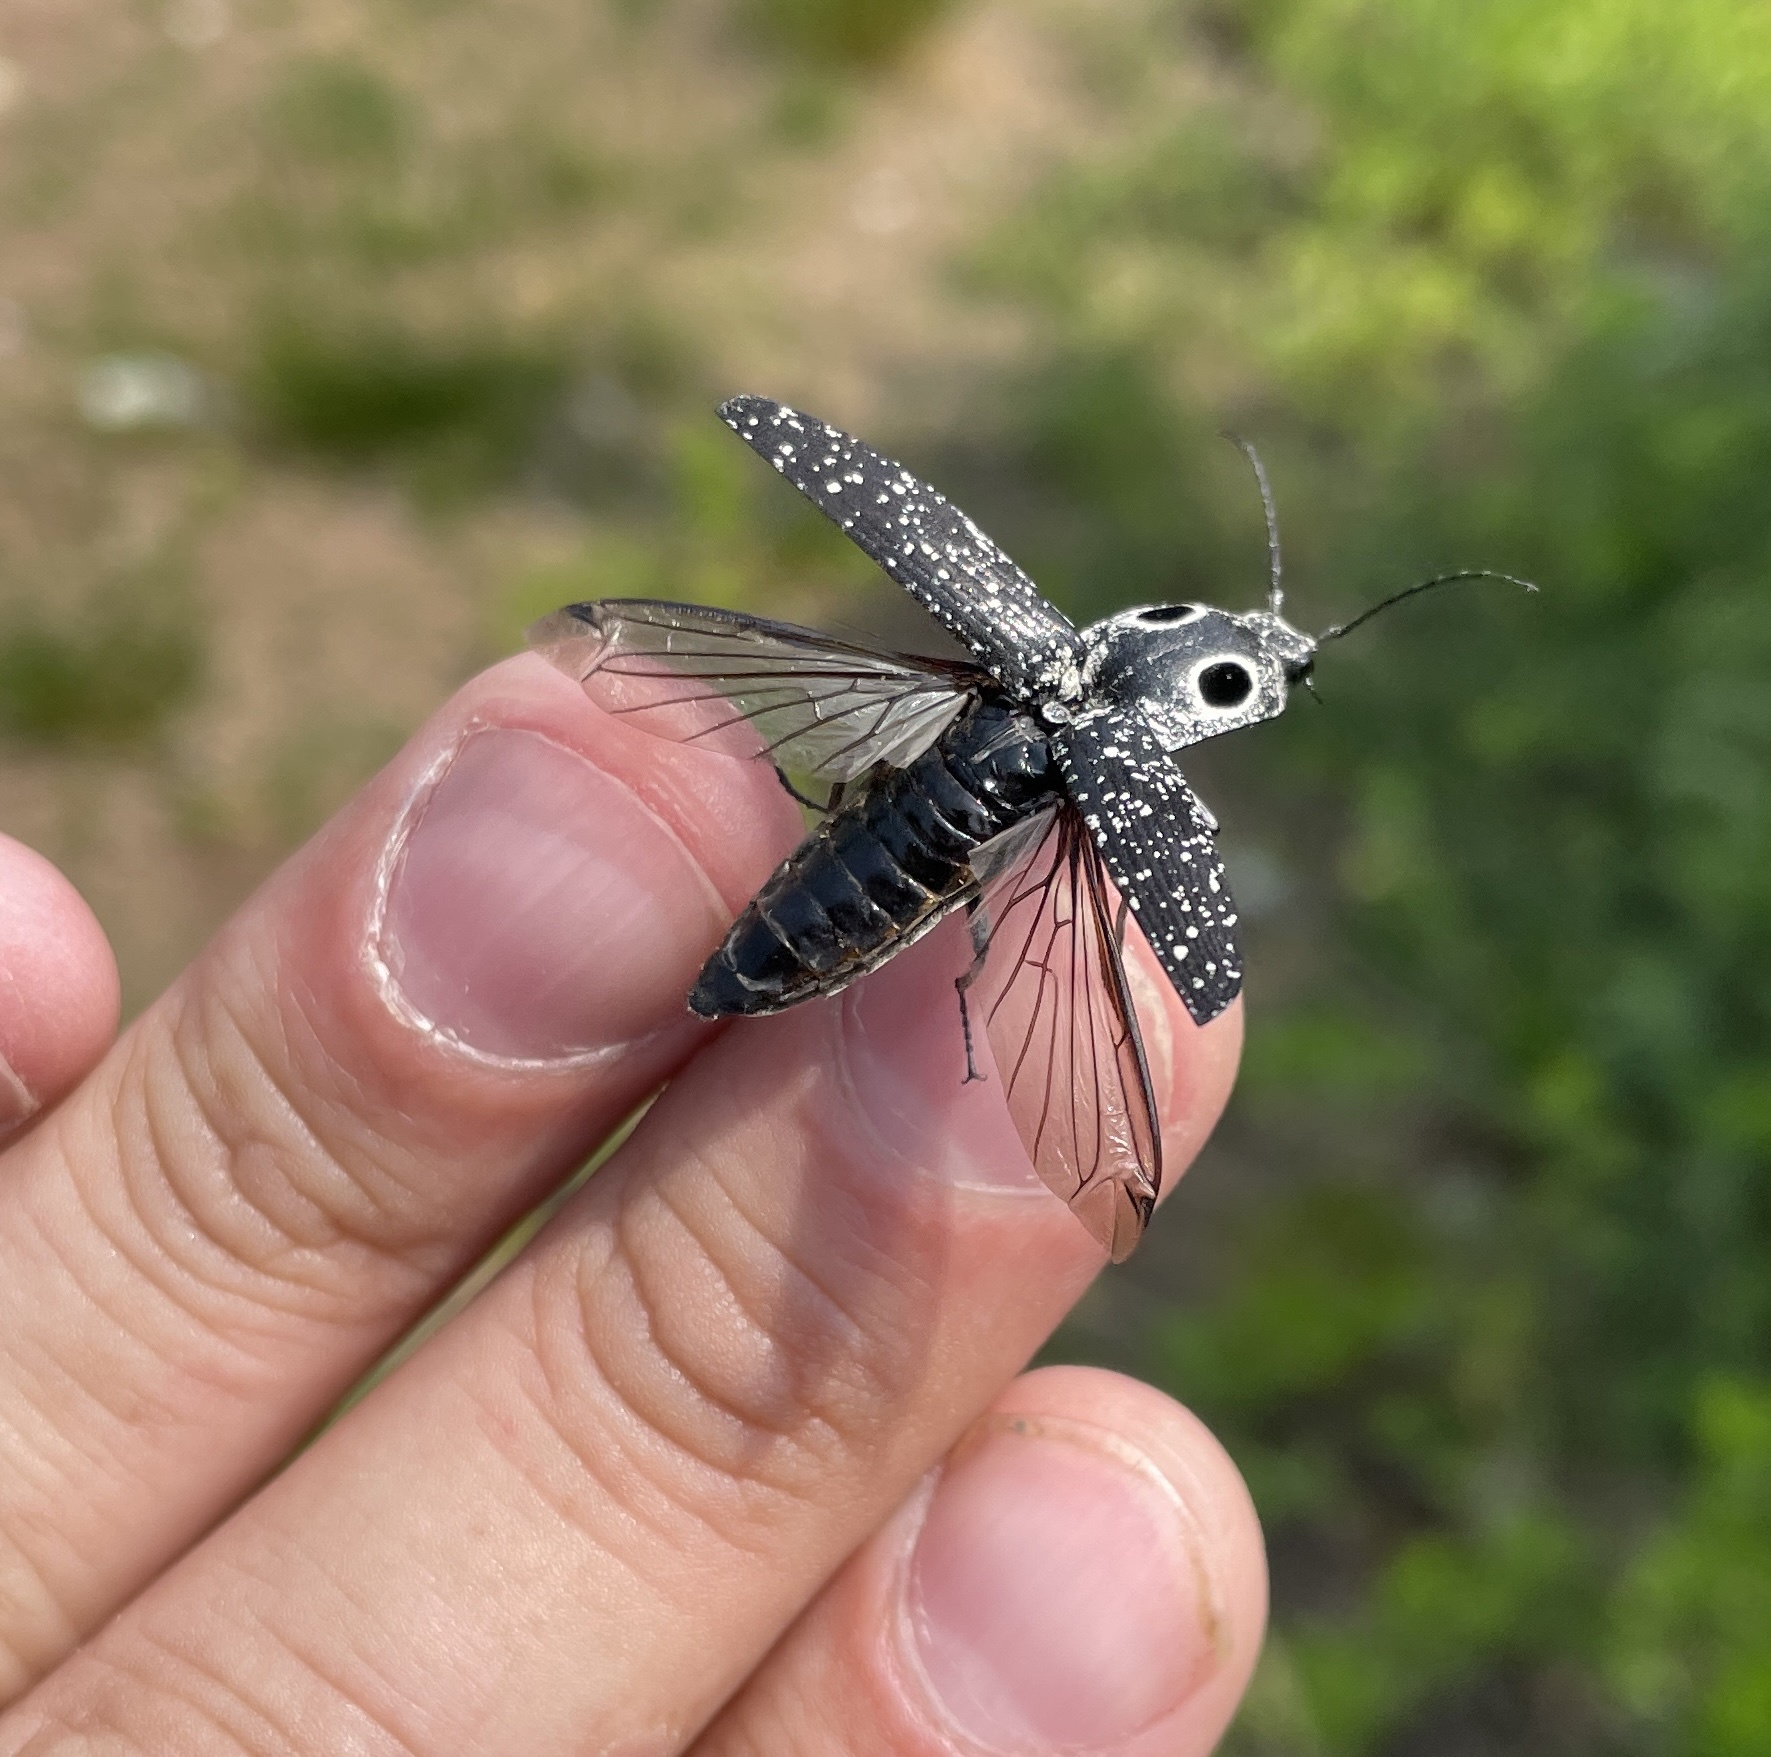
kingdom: Animalia
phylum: Arthropoda
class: Insecta
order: Coleoptera
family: Elateridae
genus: Alaus
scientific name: Alaus oculatus
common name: Eastern eyed click beetle
